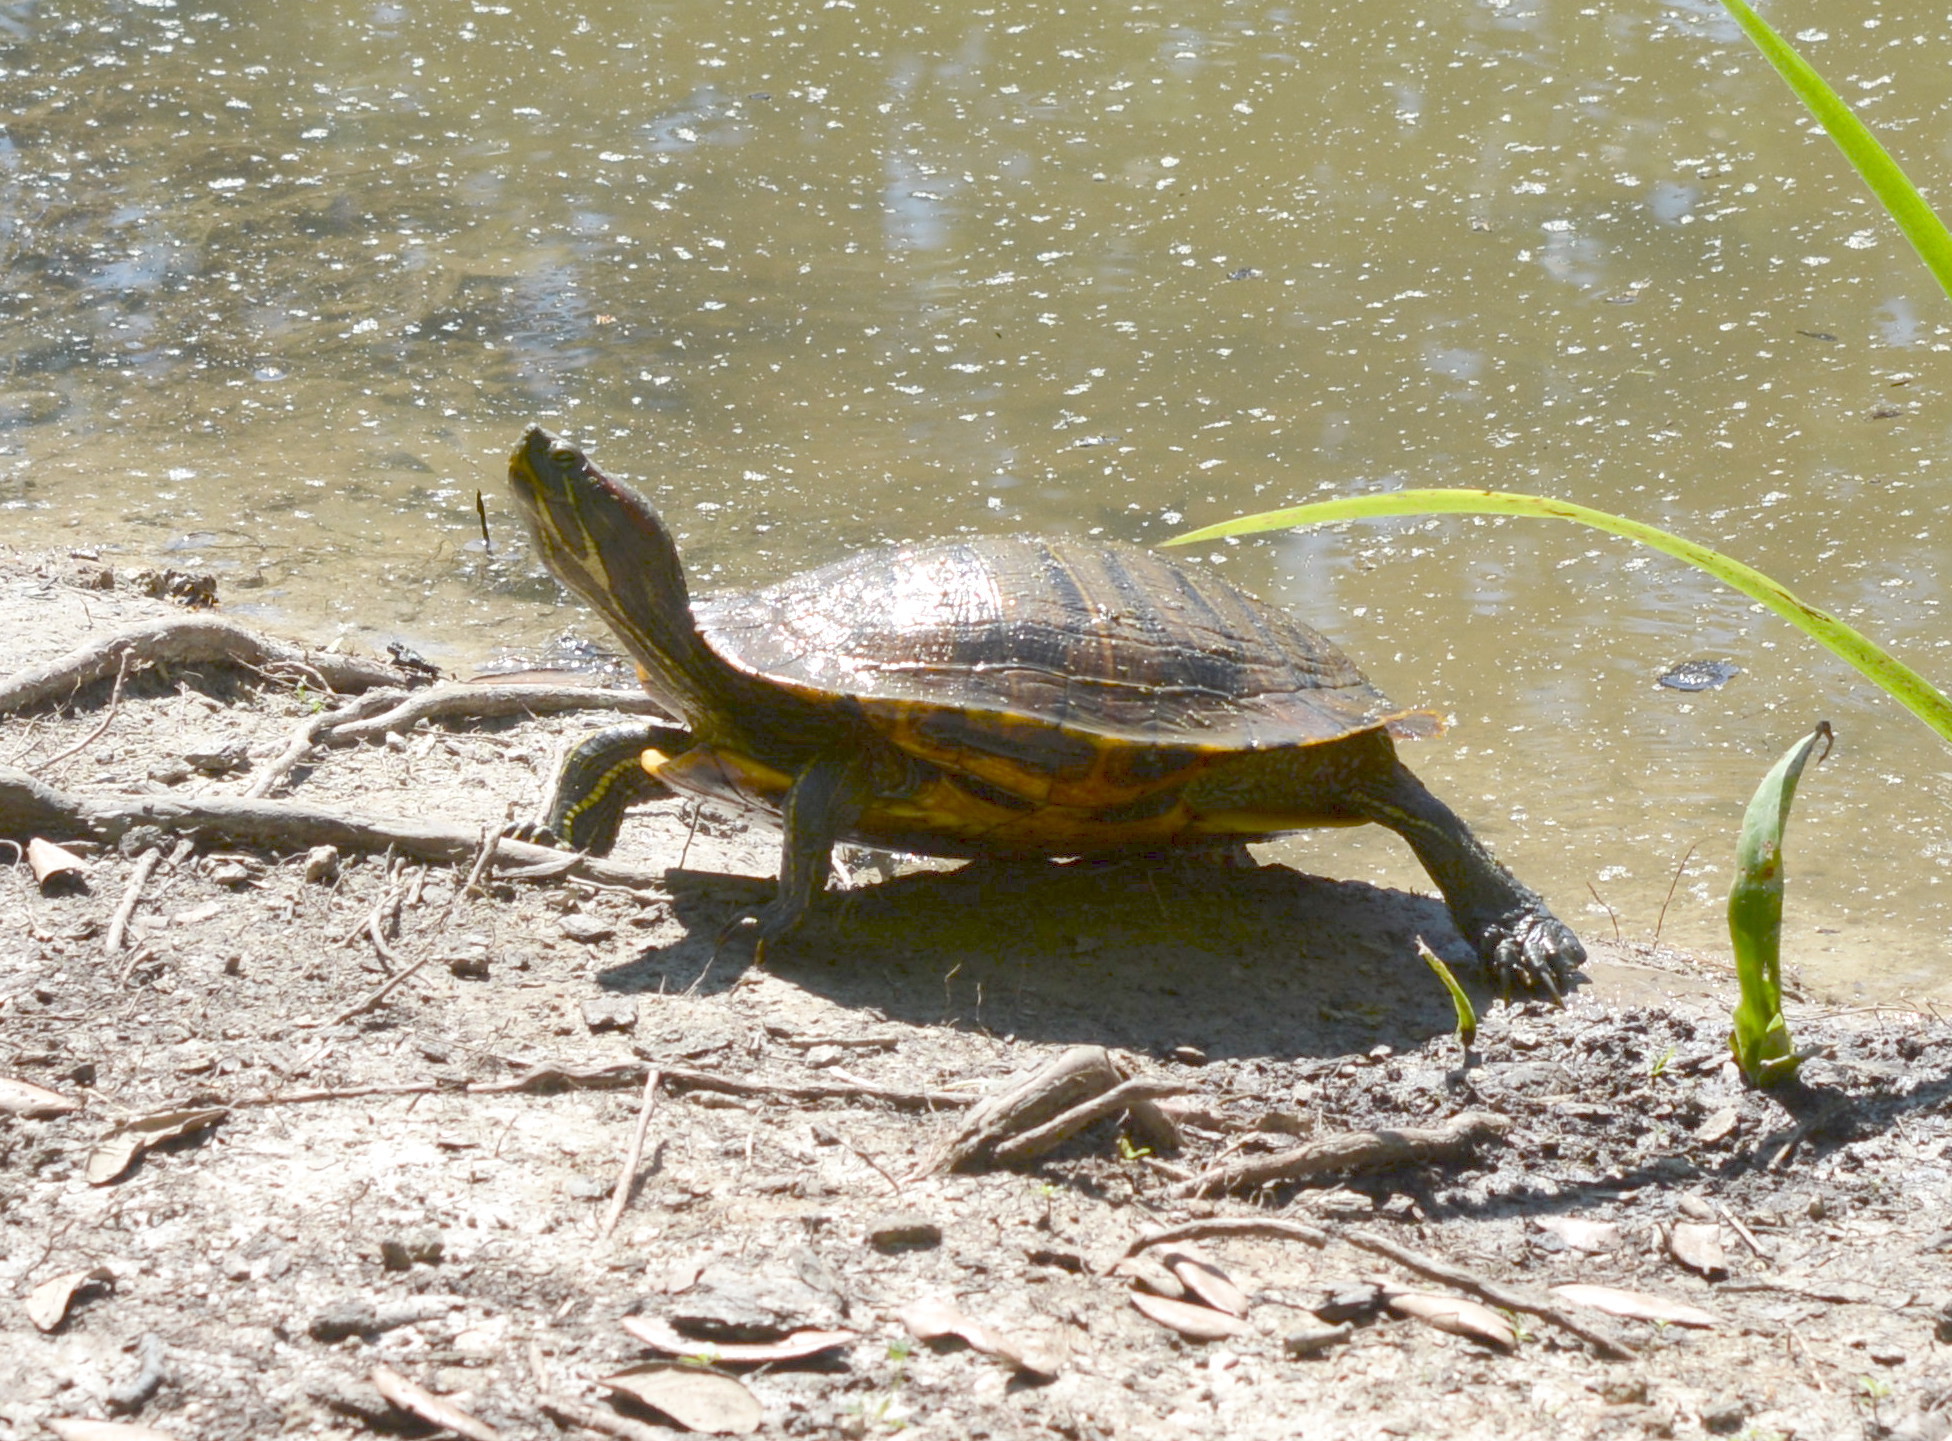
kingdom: Animalia
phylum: Chordata
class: Testudines
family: Emydidae
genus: Trachemys
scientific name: Trachemys scripta
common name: Slider
